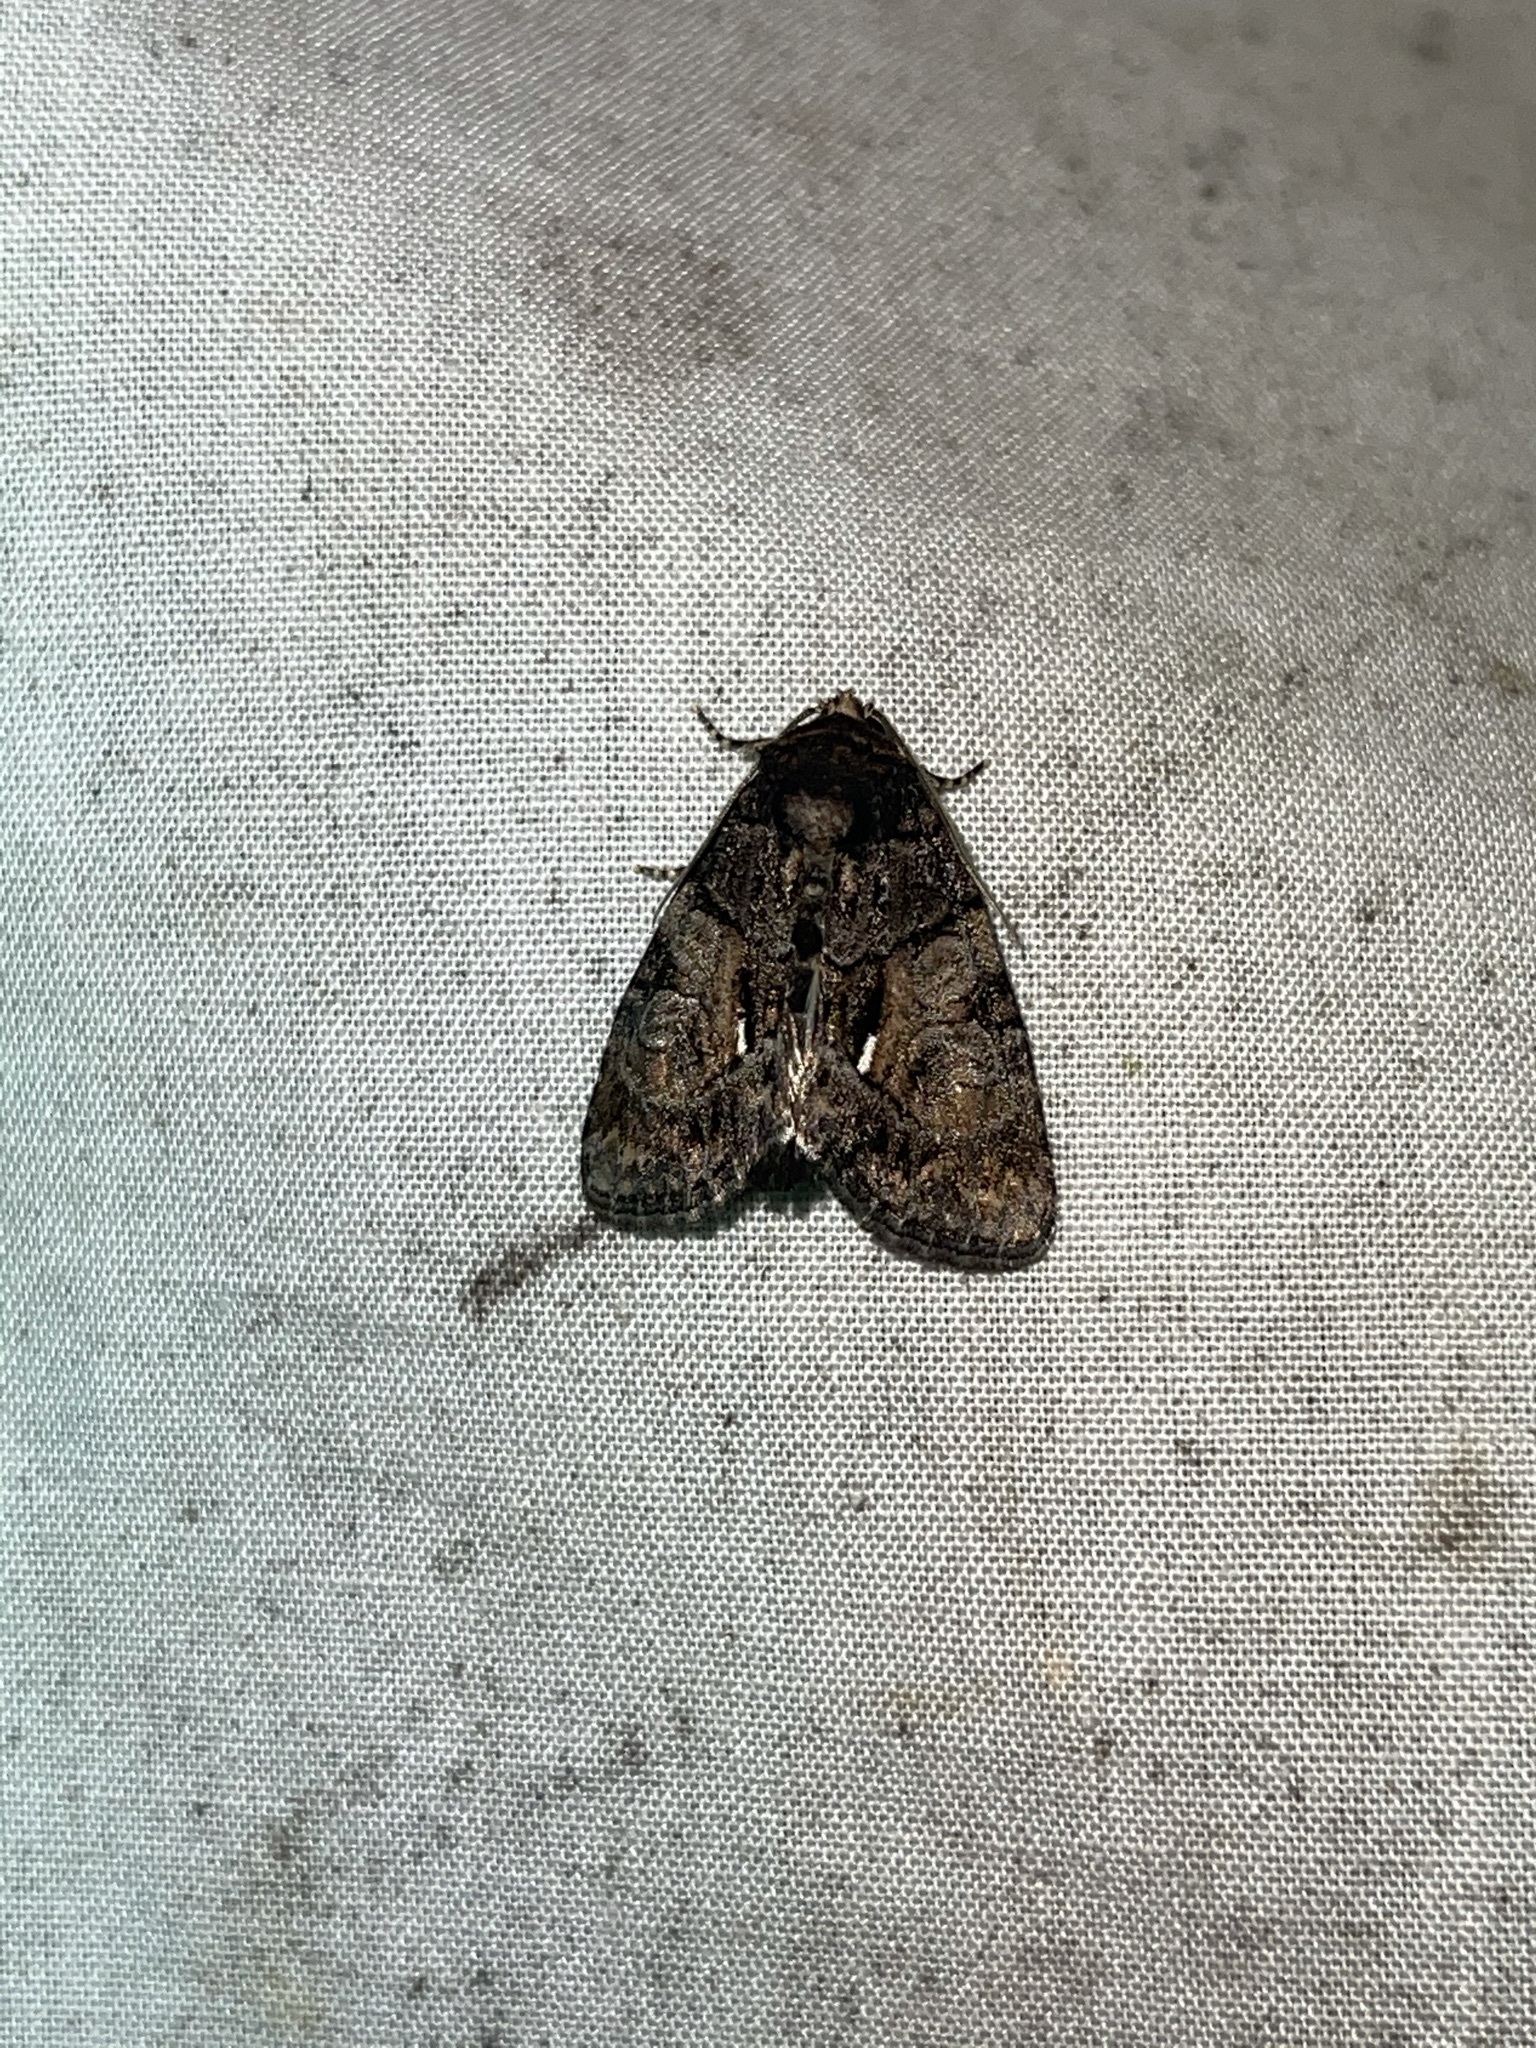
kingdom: Animalia
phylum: Arthropoda
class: Insecta
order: Lepidoptera
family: Noctuidae
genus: Chytonix
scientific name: Chytonix palliatricula
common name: Cloaked marvel
